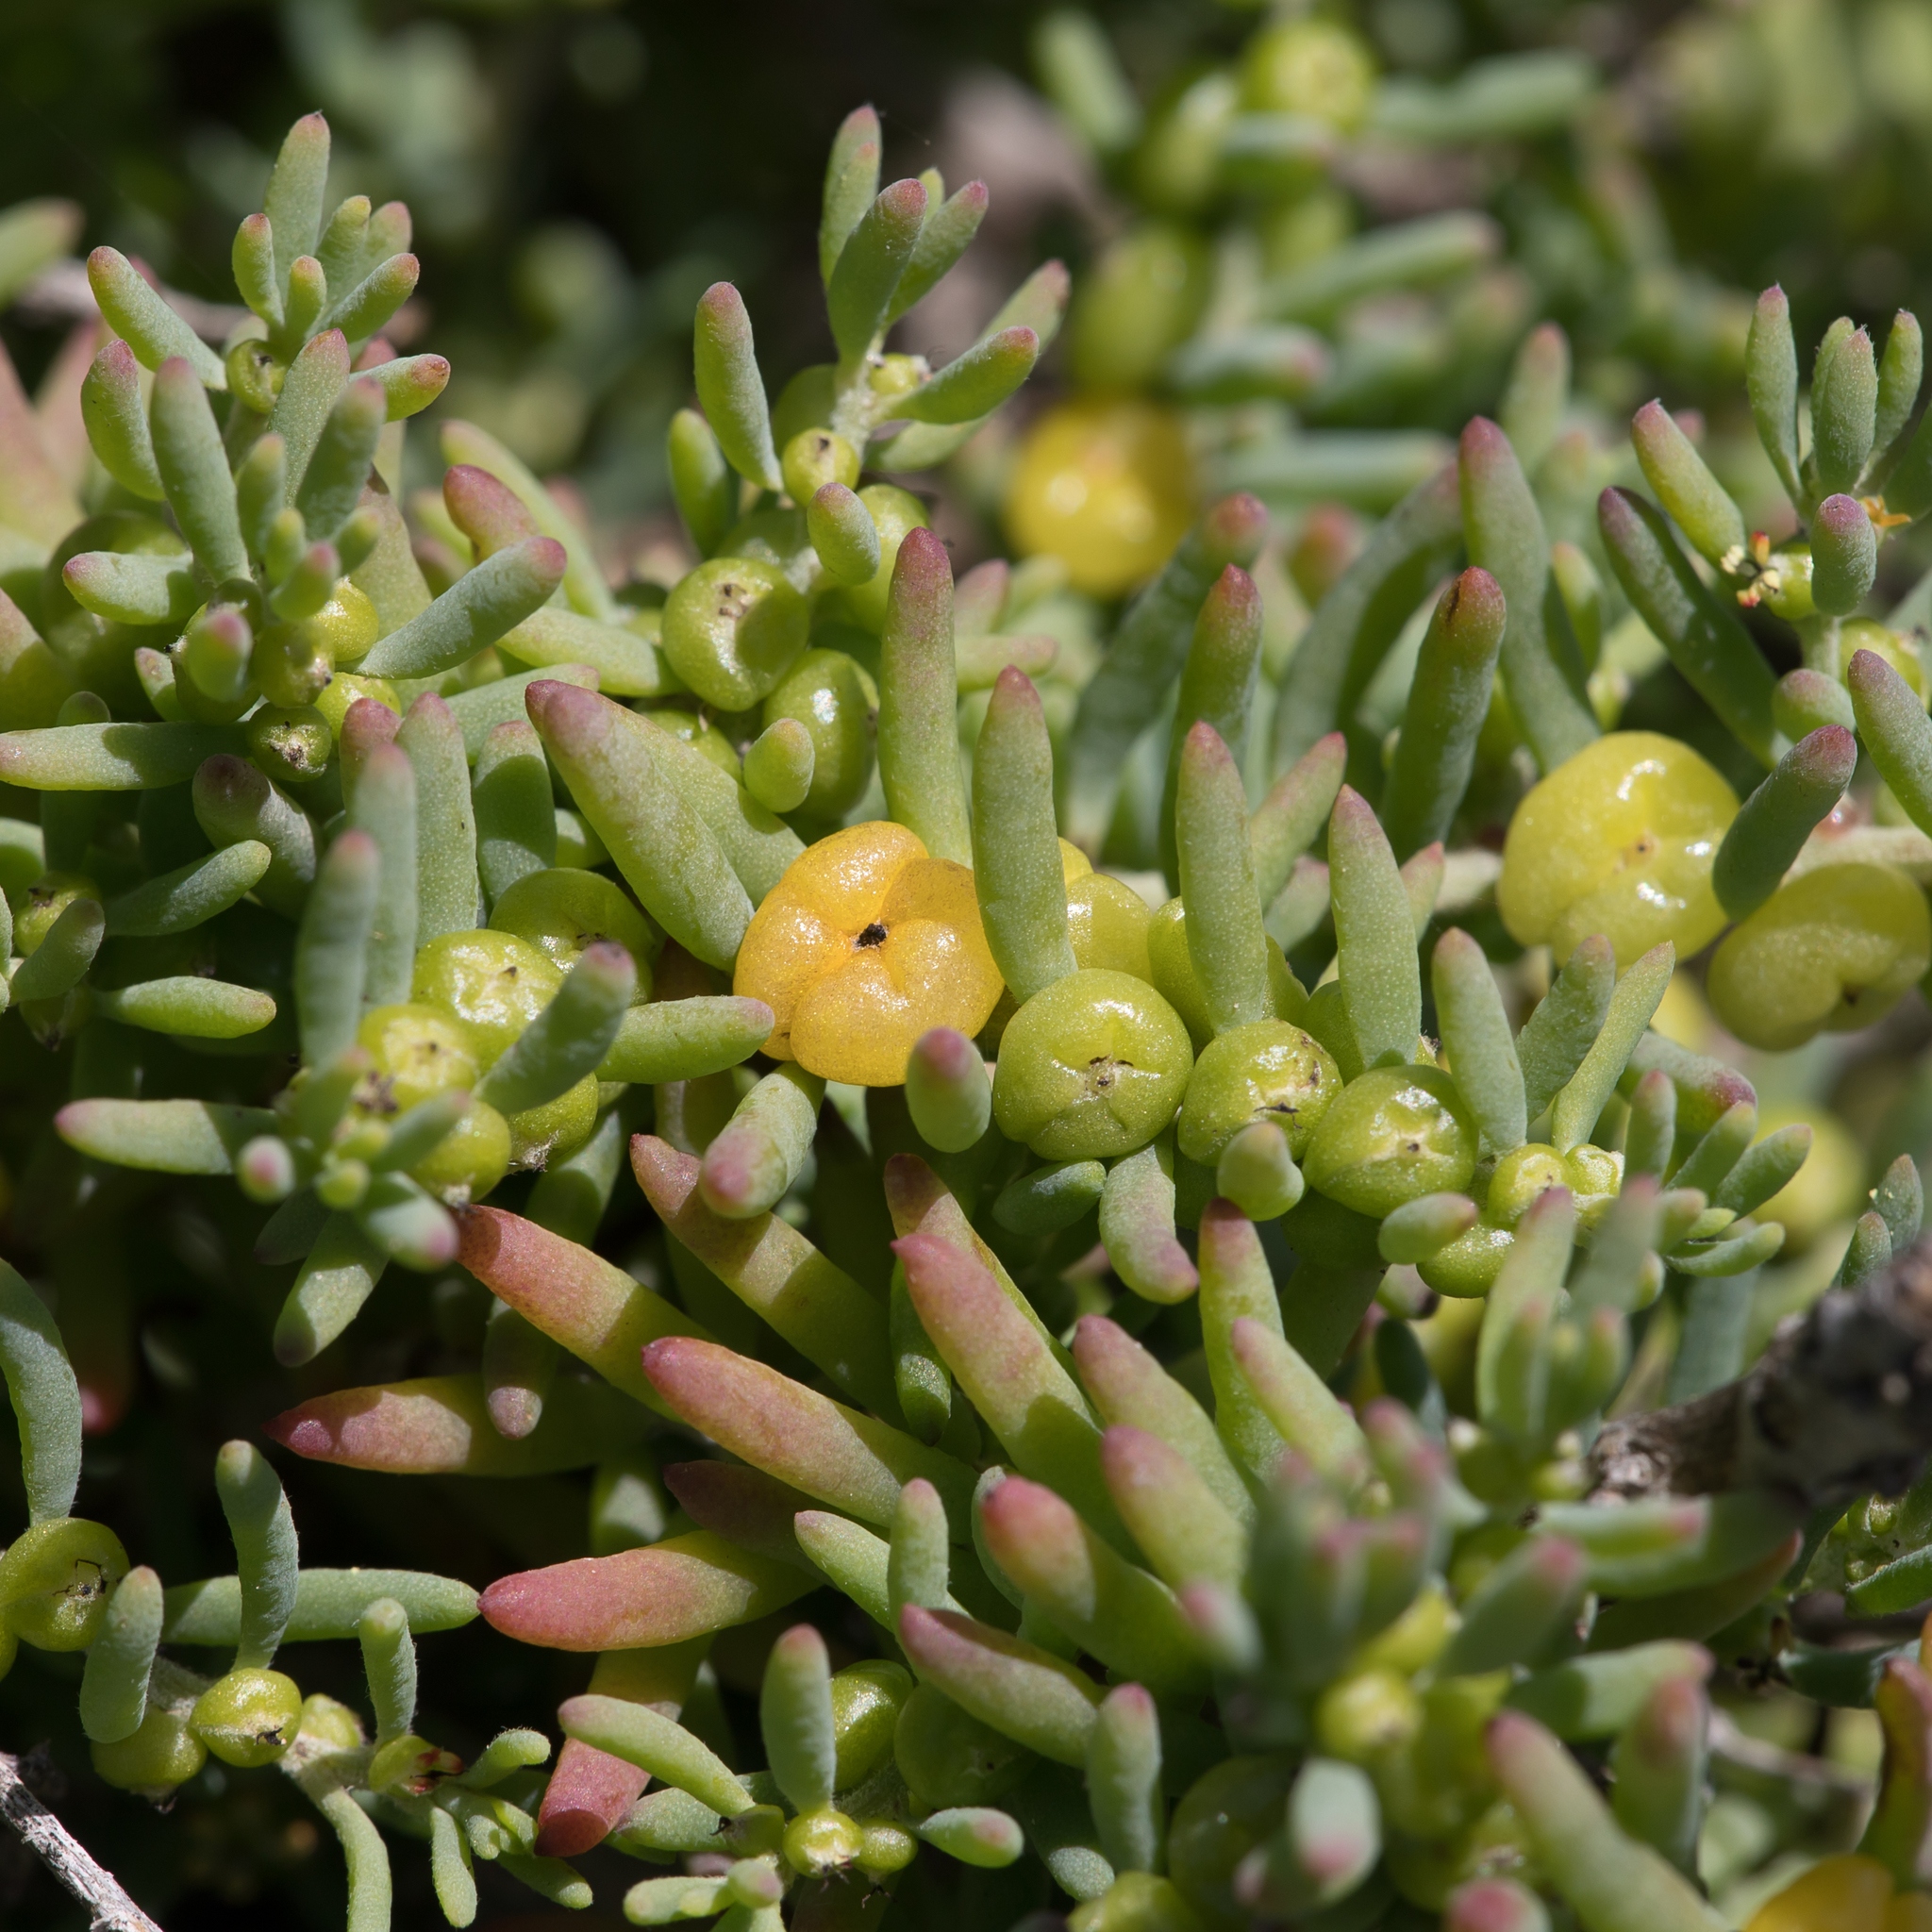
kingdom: Plantae
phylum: Tracheophyta
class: Magnoliopsida
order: Caryophyllales
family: Amaranthaceae
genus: Enchylaena
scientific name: Enchylaena tomentosa
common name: Ruby saltbush
